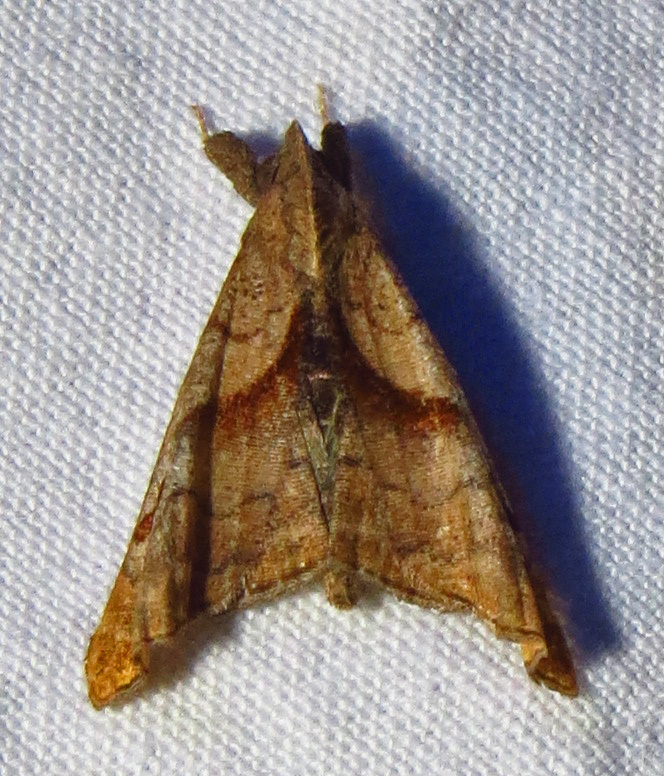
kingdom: Animalia
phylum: Arthropoda
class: Insecta
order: Lepidoptera
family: Erebidae
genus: Palthis
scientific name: Palthis angulalis
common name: Dark-spotted palthis moth
